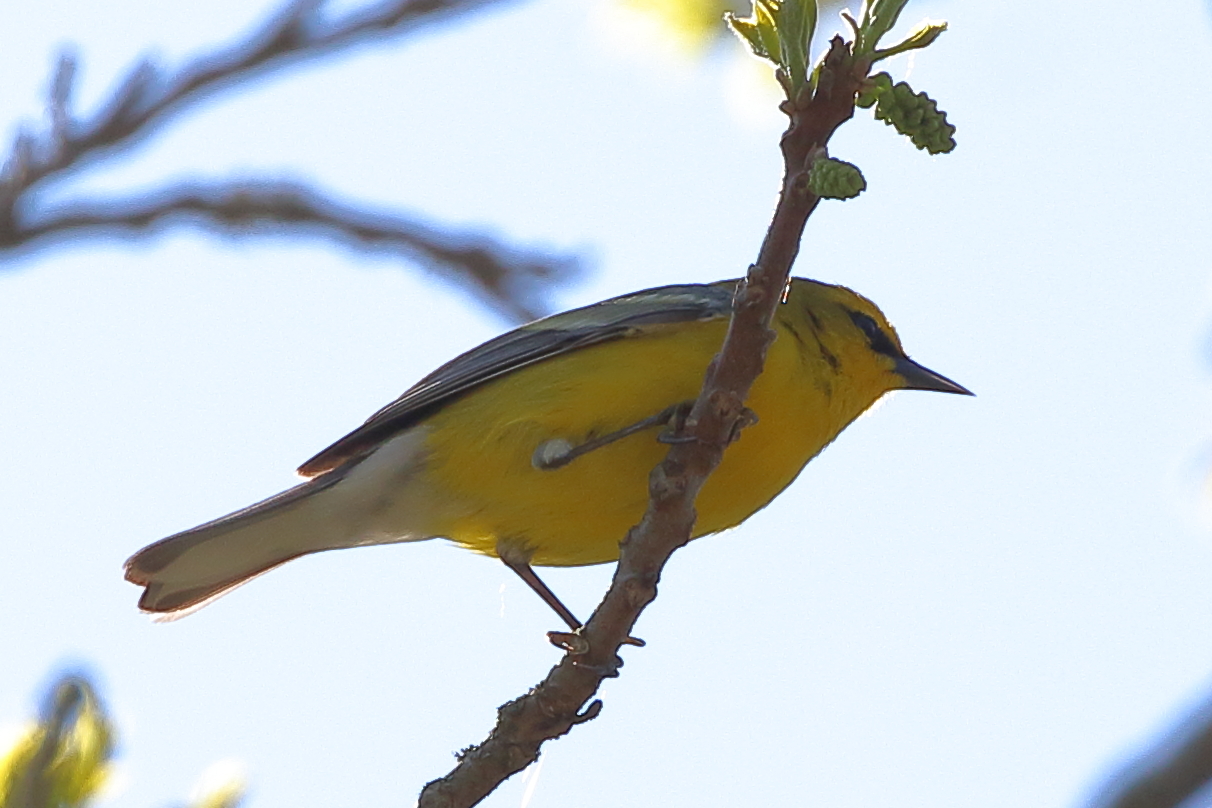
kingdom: Animalia
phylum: Chordata
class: Aves
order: Passeriformes
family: Parulidae
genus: Vermivora
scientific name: Vermivora cyanoptera
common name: Blue-winged warbler
